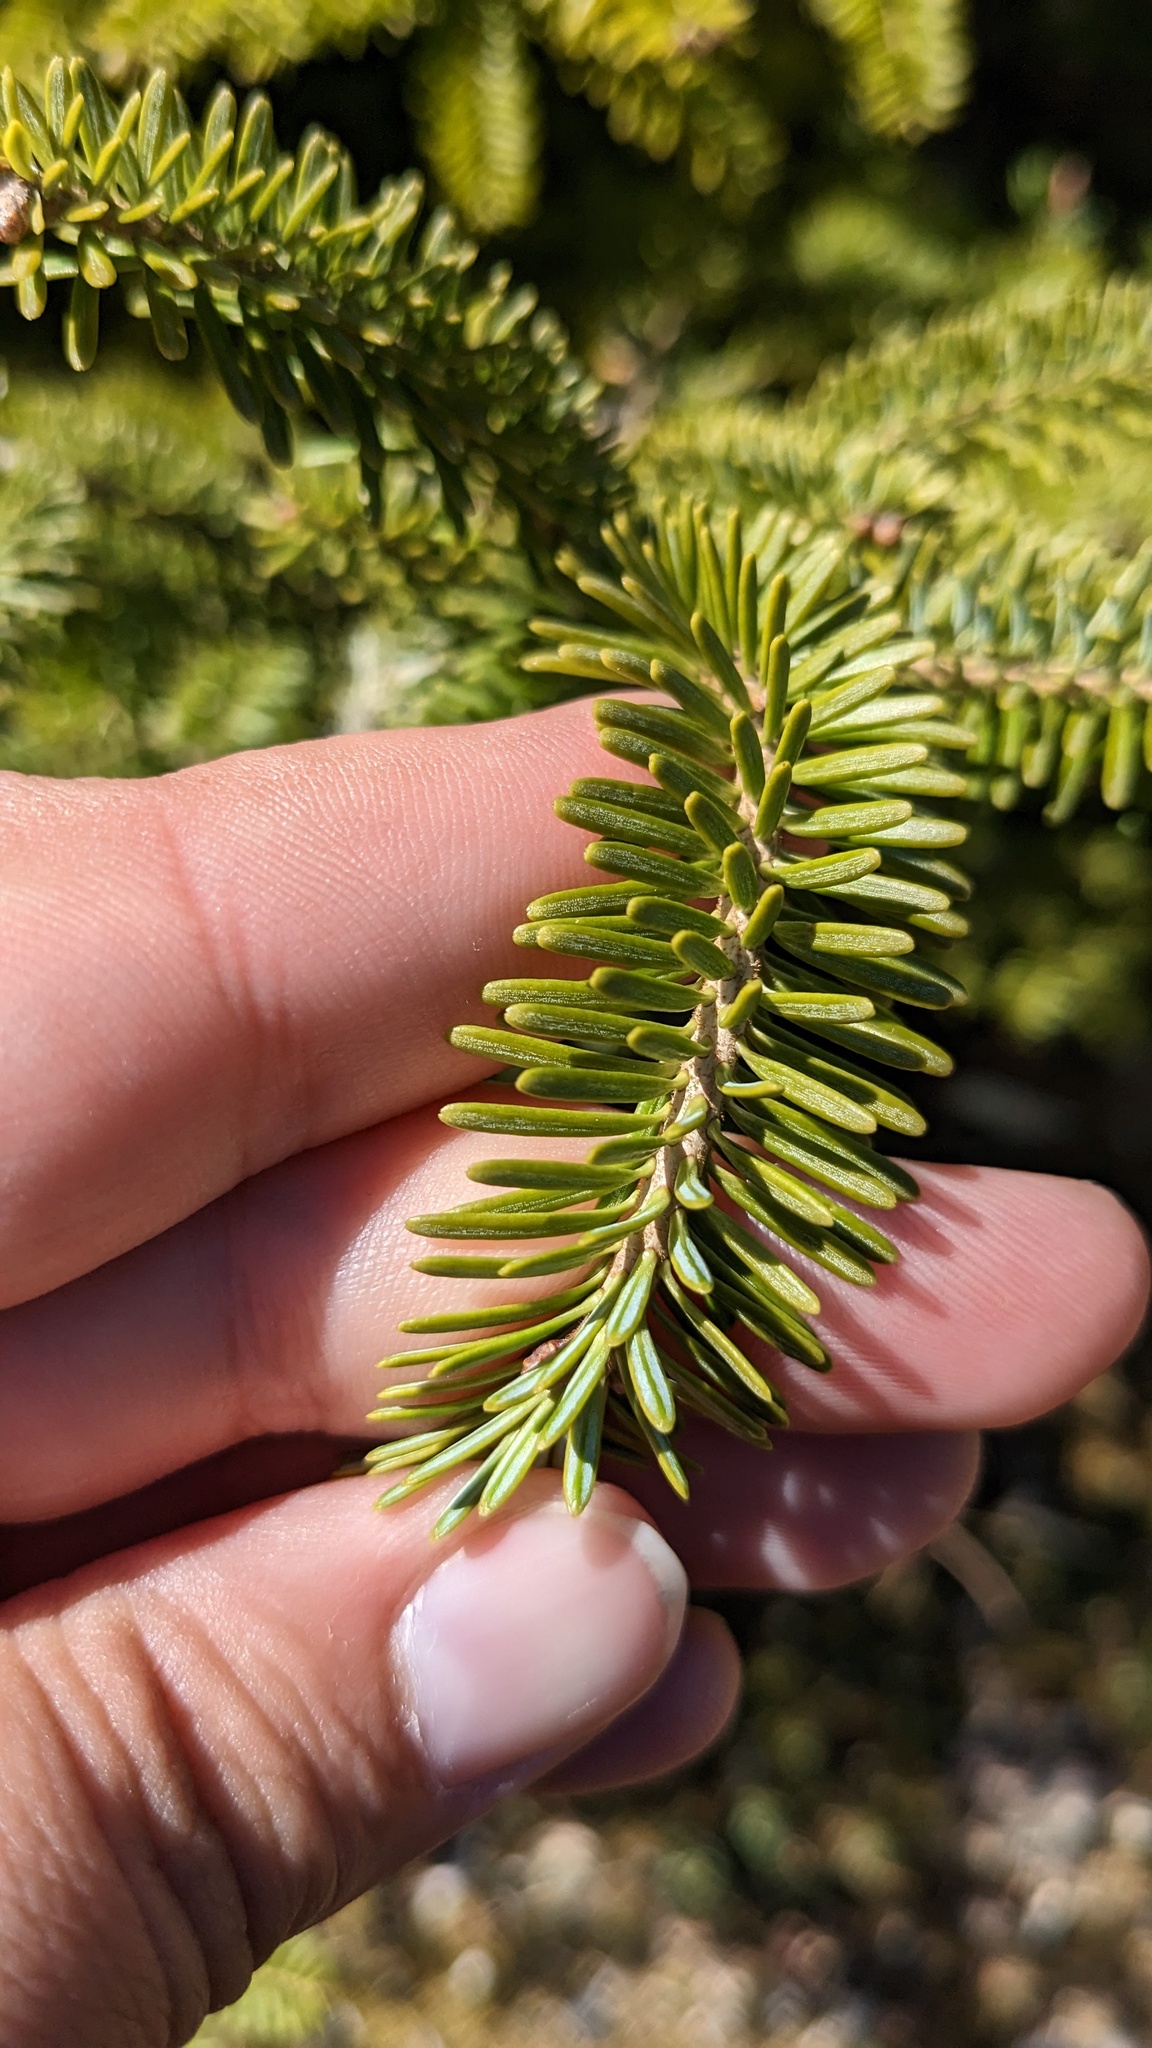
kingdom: Plantae
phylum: Tracheophyta
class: Pinopsida
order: Pinales
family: Pinaceae
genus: Abies
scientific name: Abies balsamea
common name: Balsam fir
